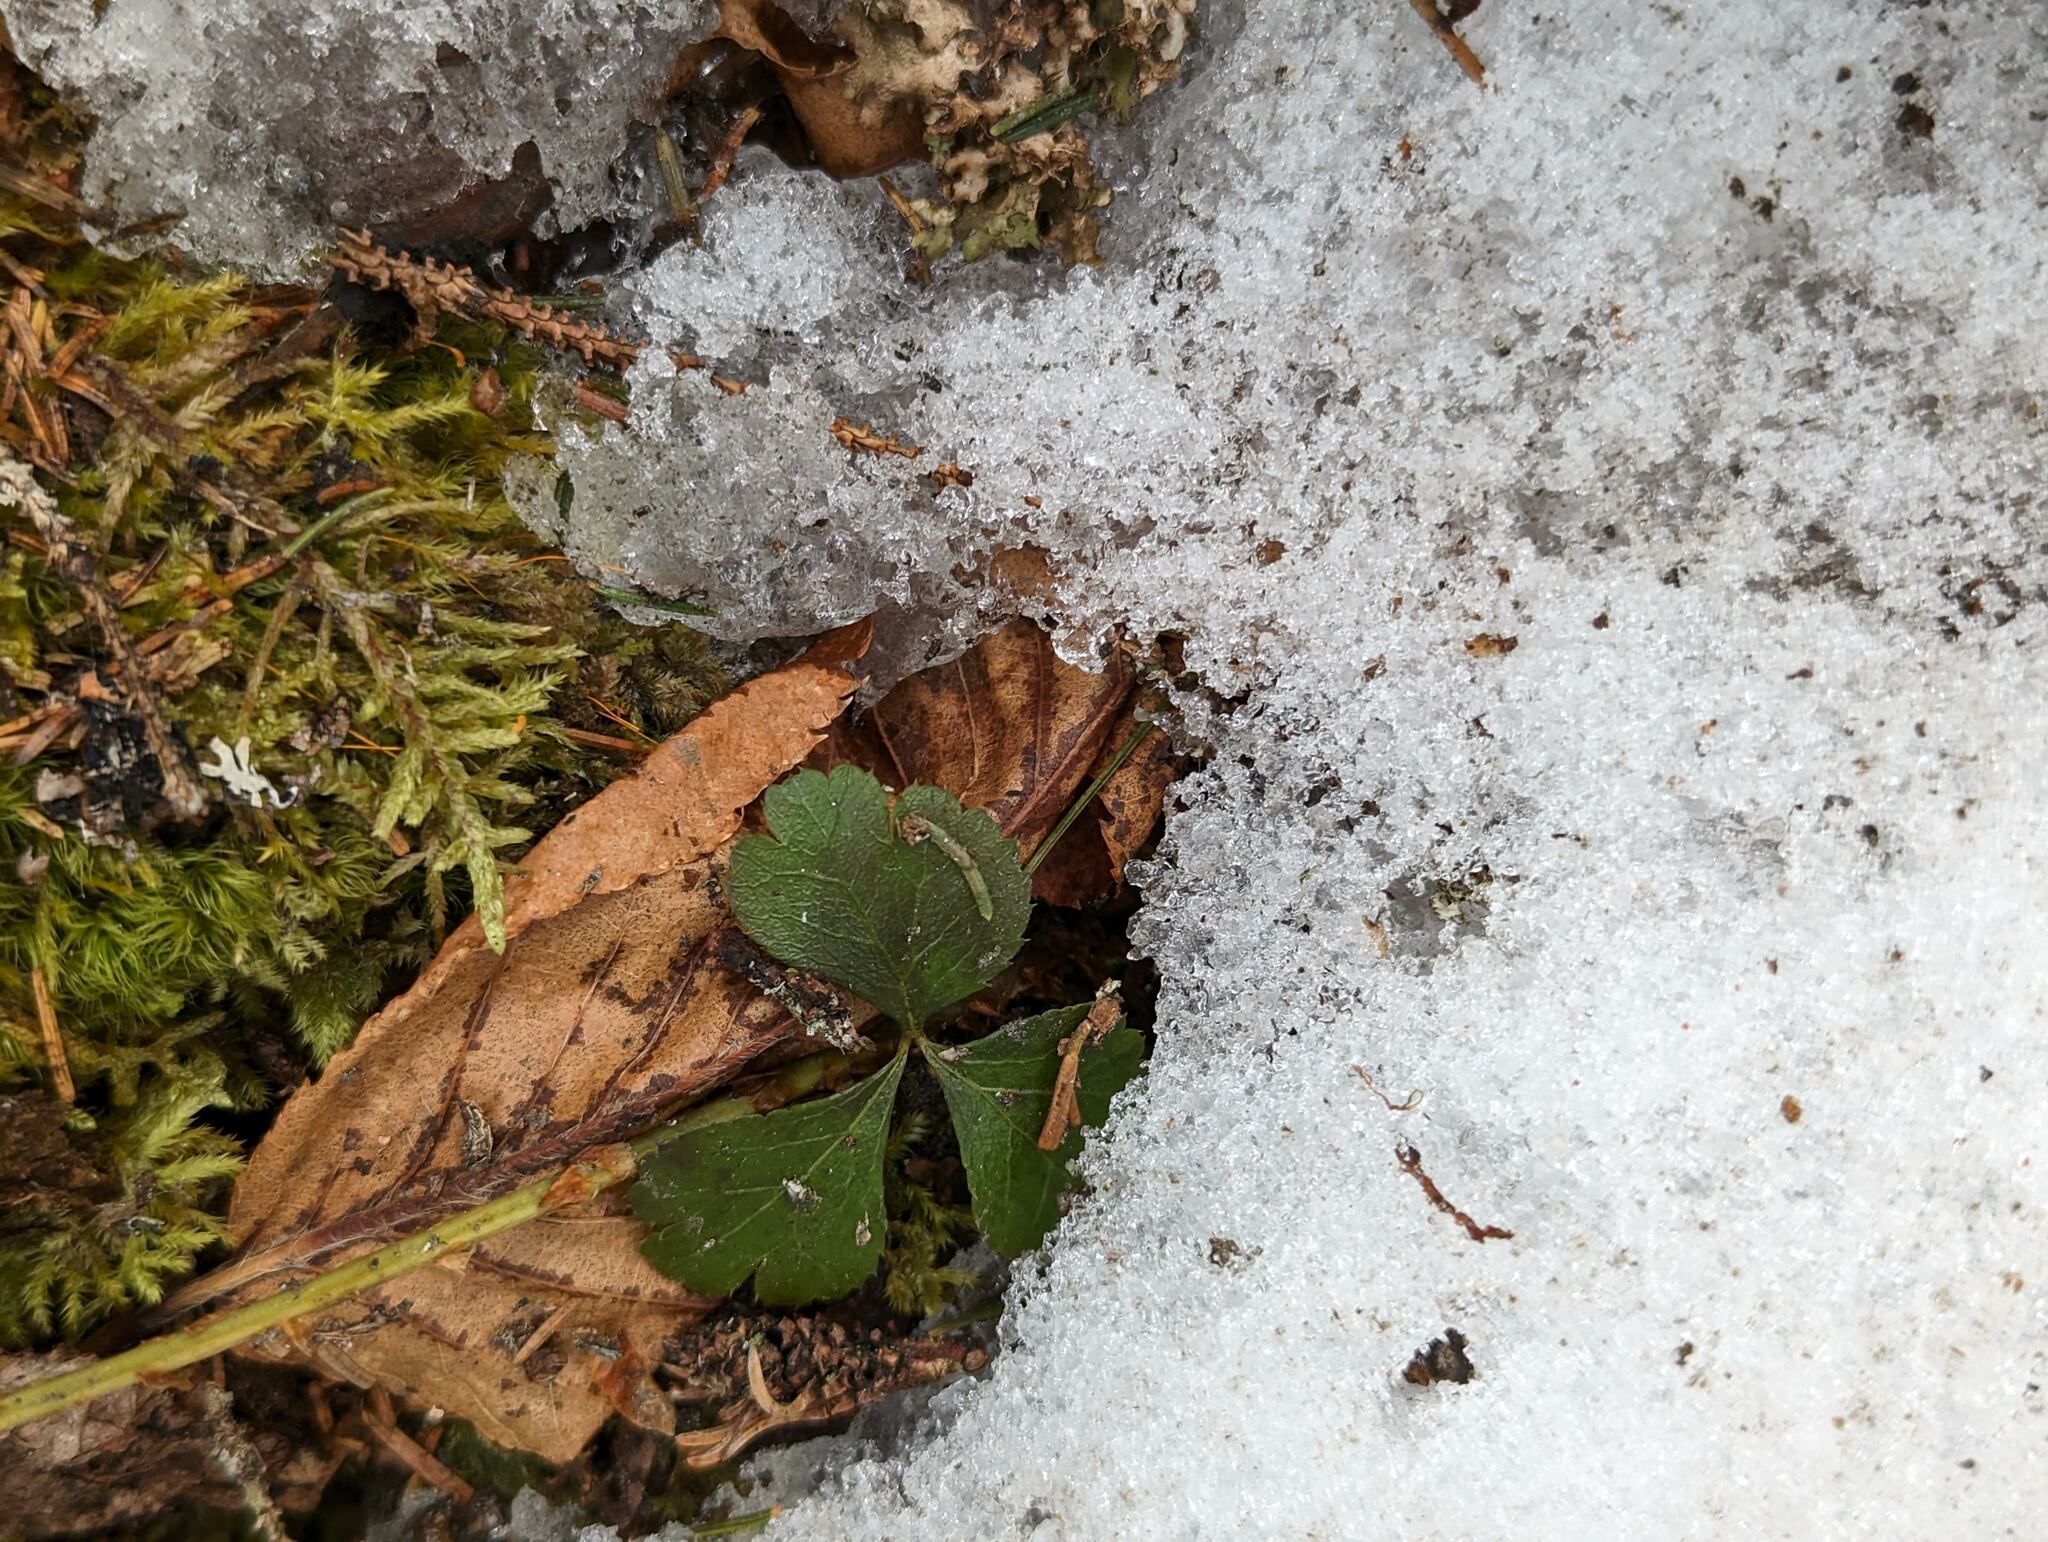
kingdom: Plantae
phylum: Tracheophyta
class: Magnoliopsida
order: Ranunculales
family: Ranunculaceae
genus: Coptis
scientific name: Coptis trifolia
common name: Canker-root
